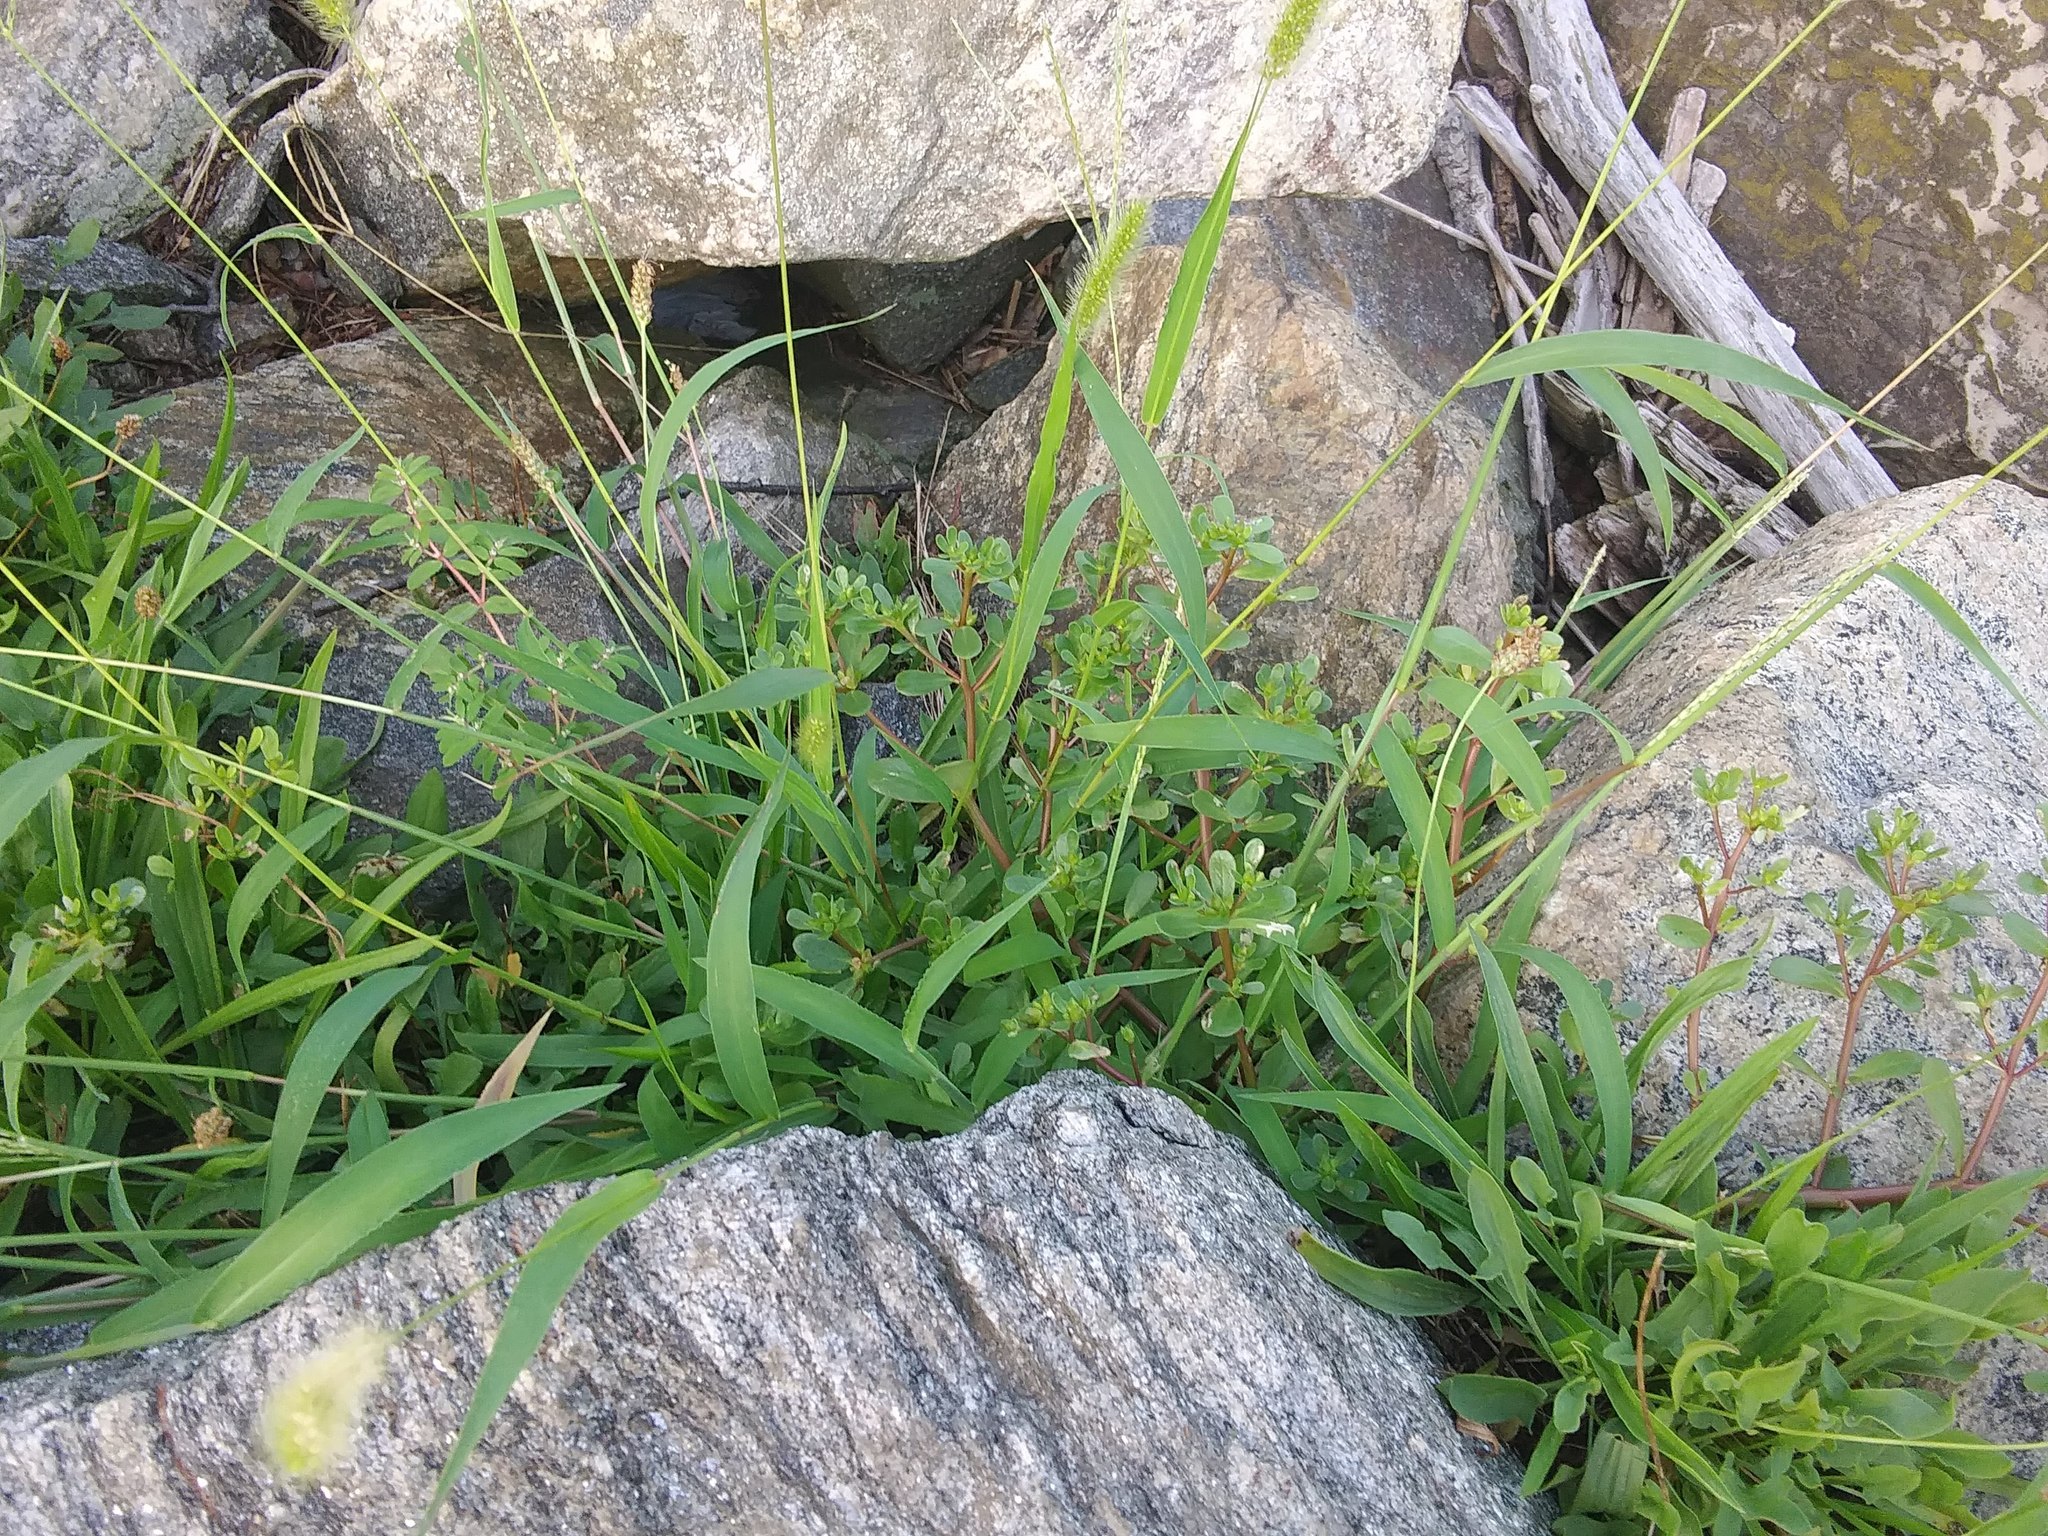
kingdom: Plantae
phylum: Tracheophyta
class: Magnoliopsida
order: Caryophyllales
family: Portulacaceae
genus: Portulaca
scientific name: Portulaca oleracea
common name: Common purslane
